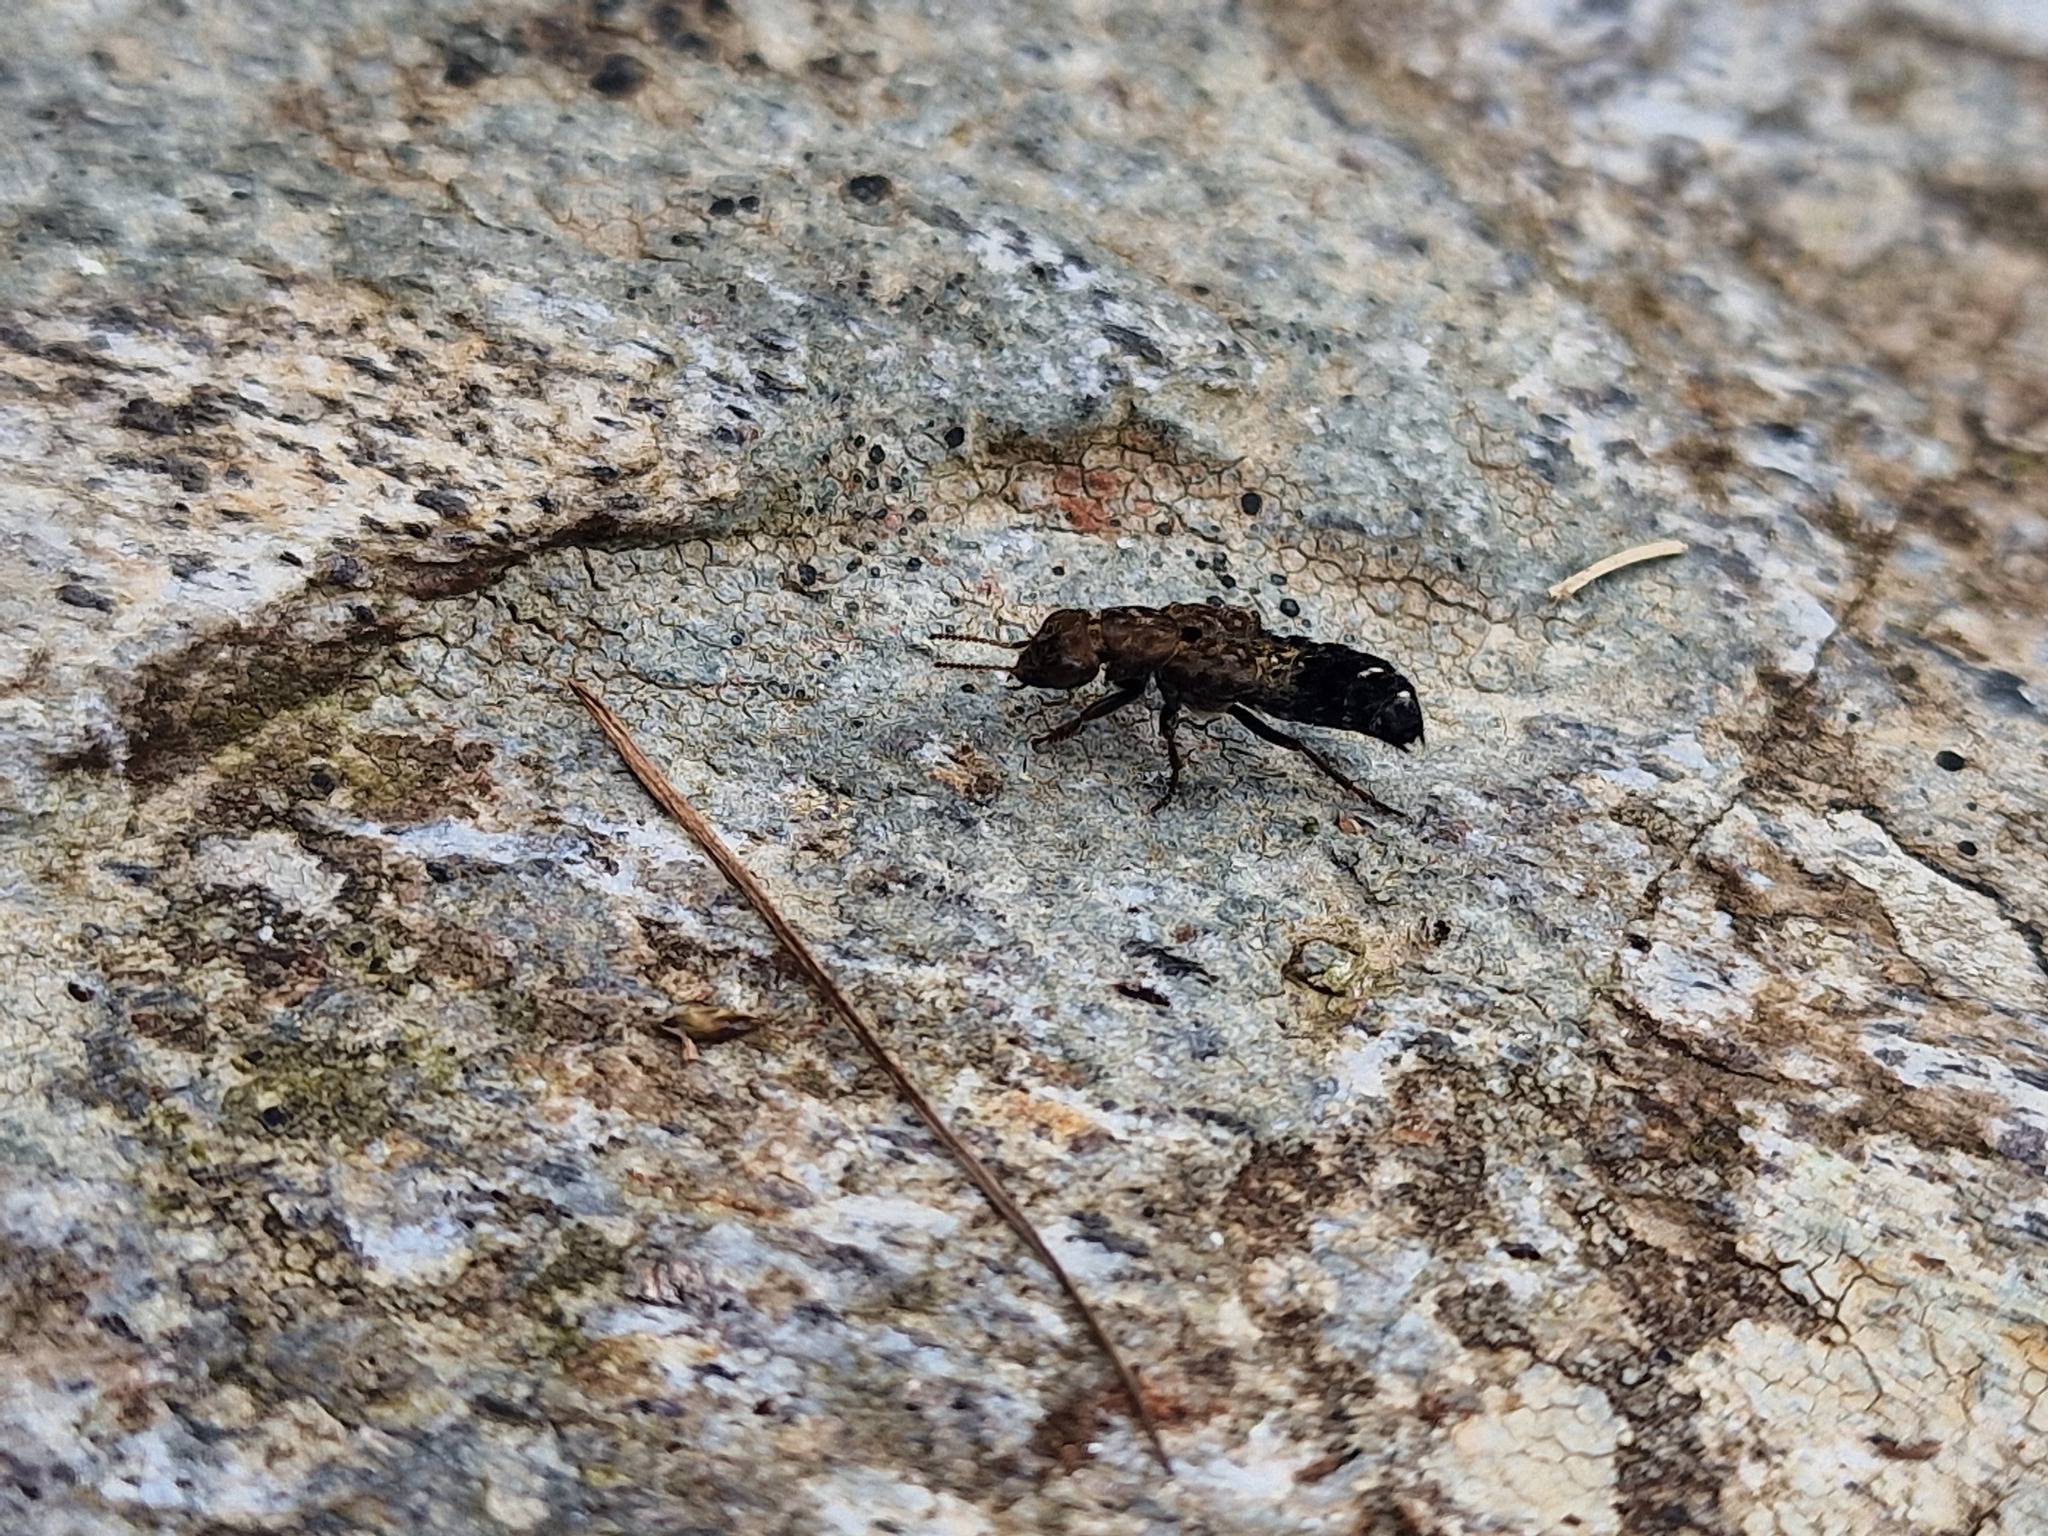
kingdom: Animalia
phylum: Arthropoda
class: Insecta
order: Coleoptera
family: Staphylinidae
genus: Ontholestes
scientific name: Ontholestes murinus
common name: Staph beetle
